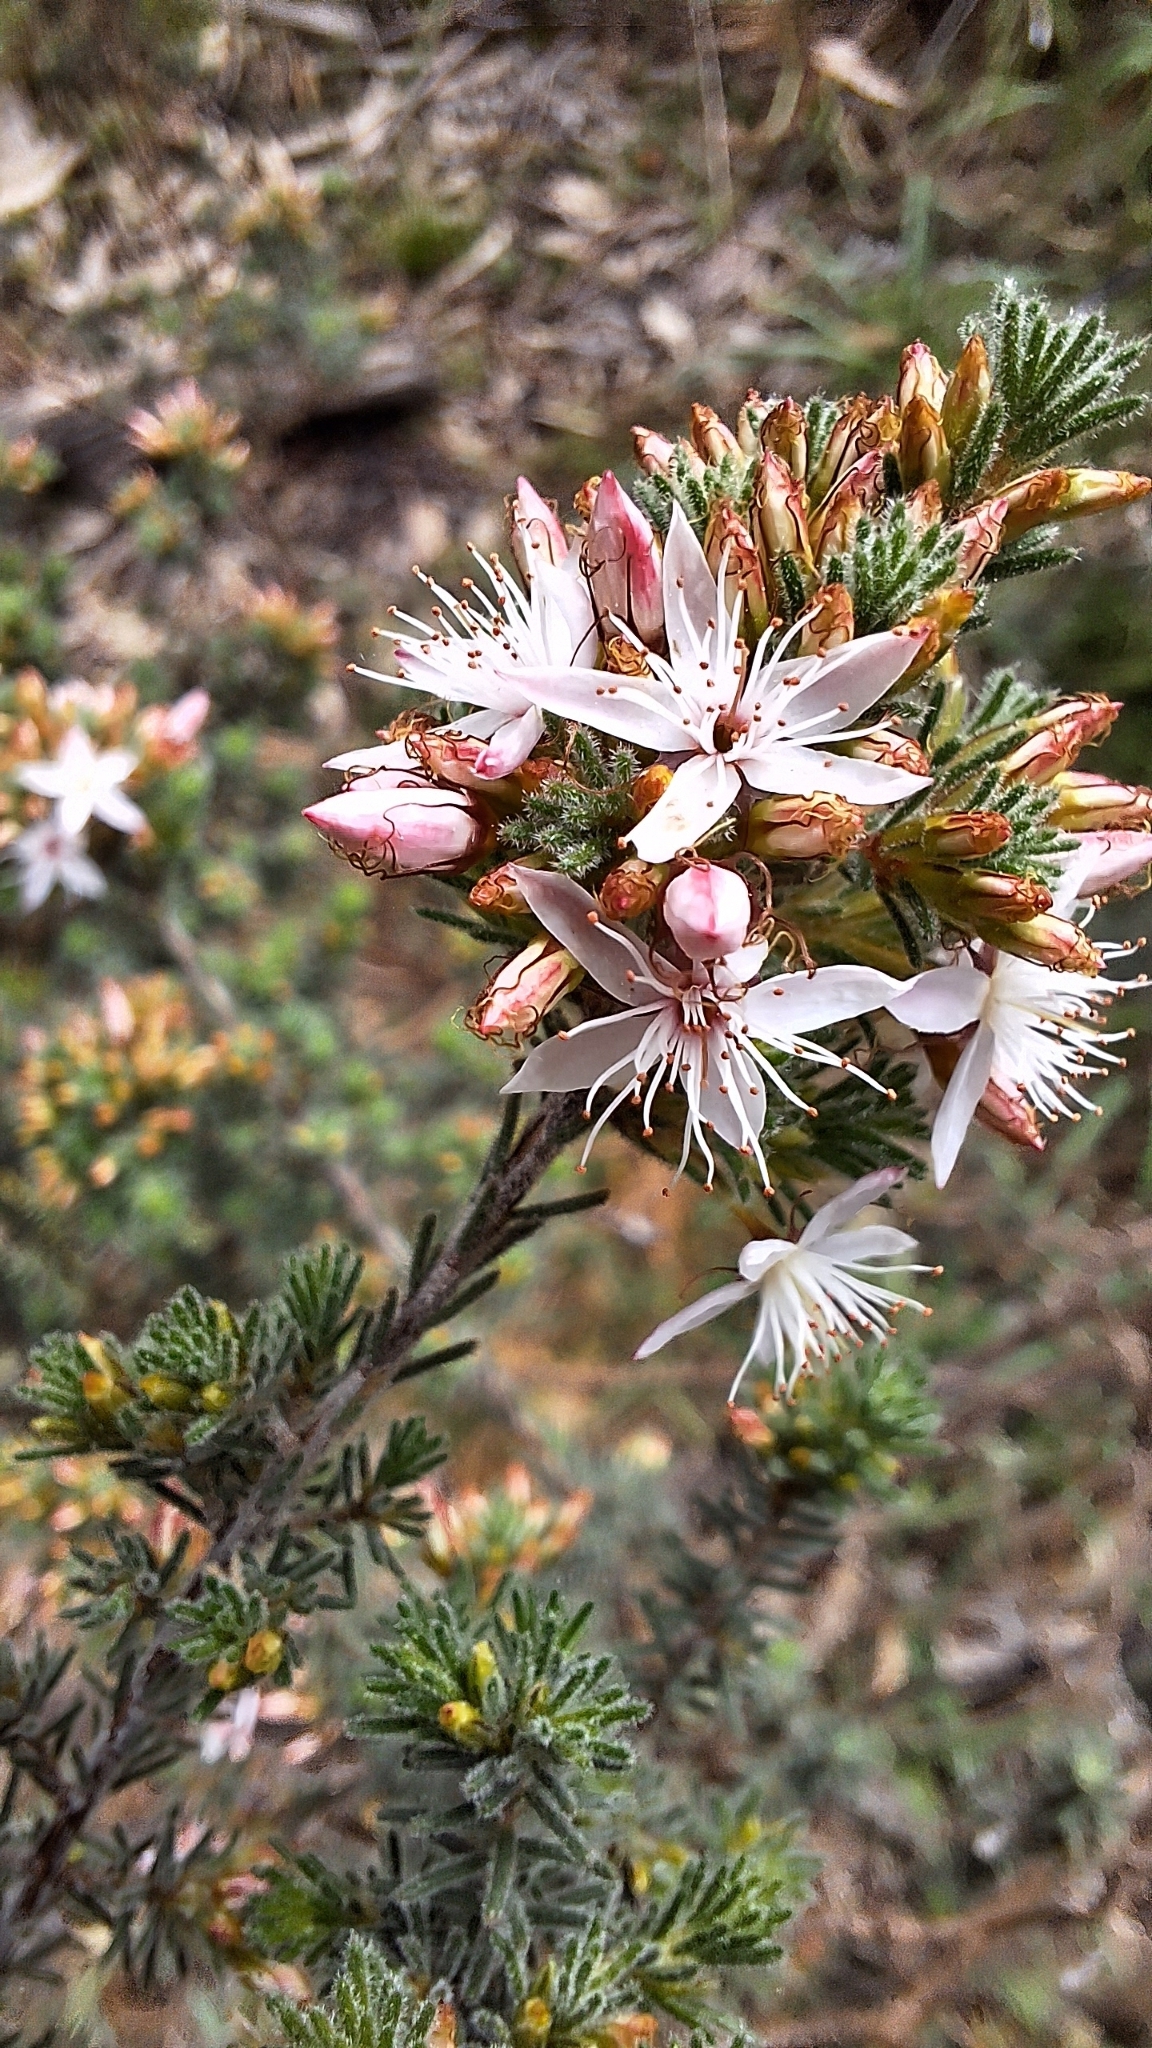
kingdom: Plantae
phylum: Tracheophyta
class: Magnoliopsida
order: Myrtales
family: Myrtaceae
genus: Calytrix
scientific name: Calytrix tetragona
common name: Common fringe myrtle
